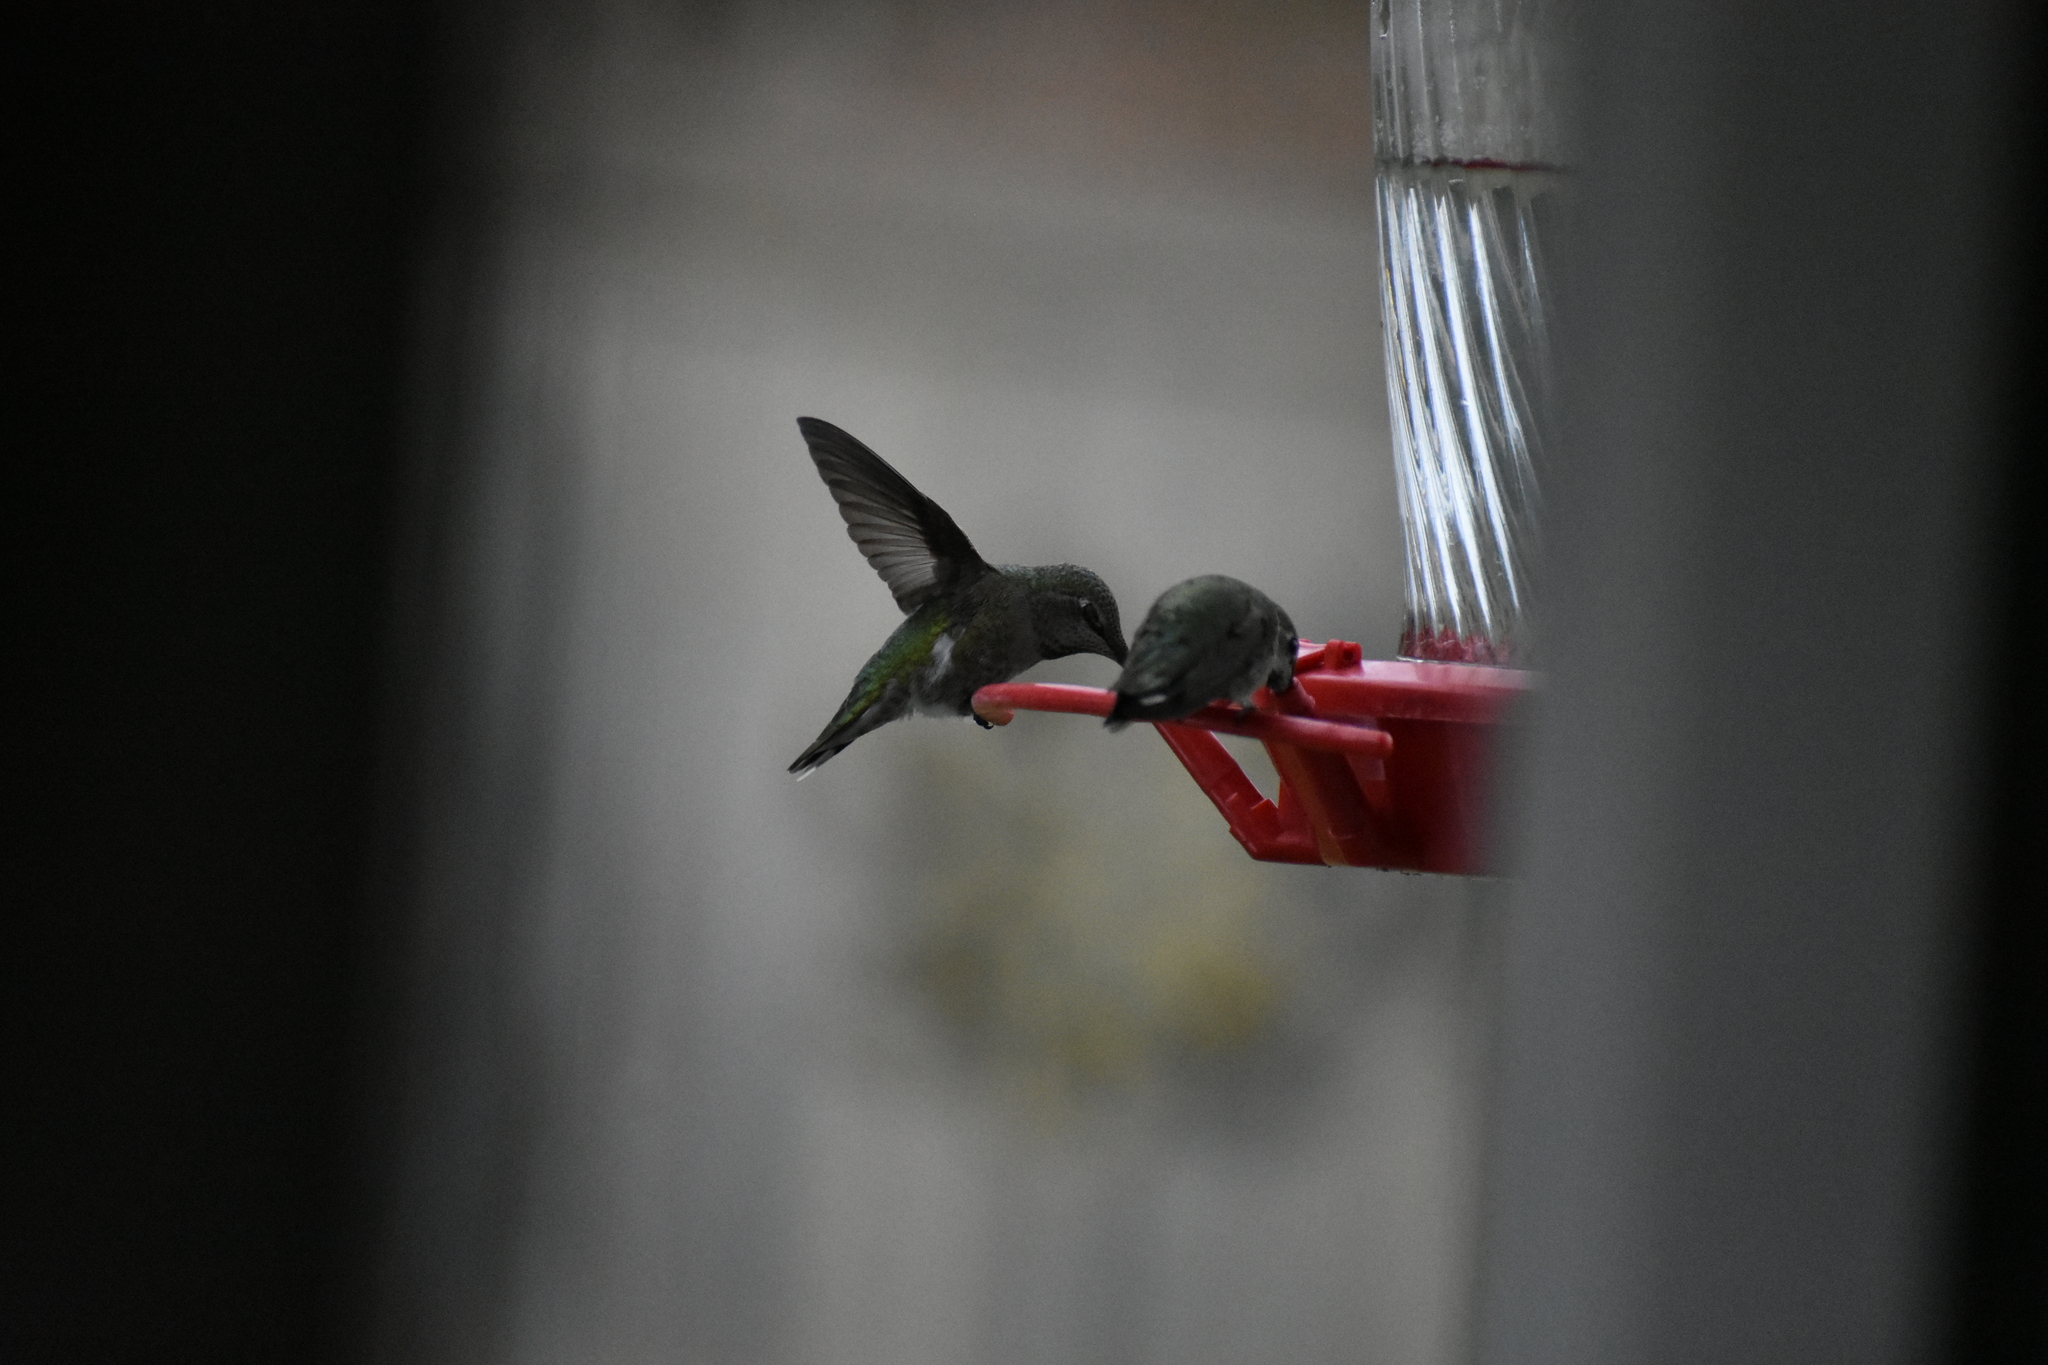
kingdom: Animalia
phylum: Chordata
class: Aves
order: Apodiformes
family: Trochilidae
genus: Calypte
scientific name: Calypte anna
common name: Anna's hummingbird
